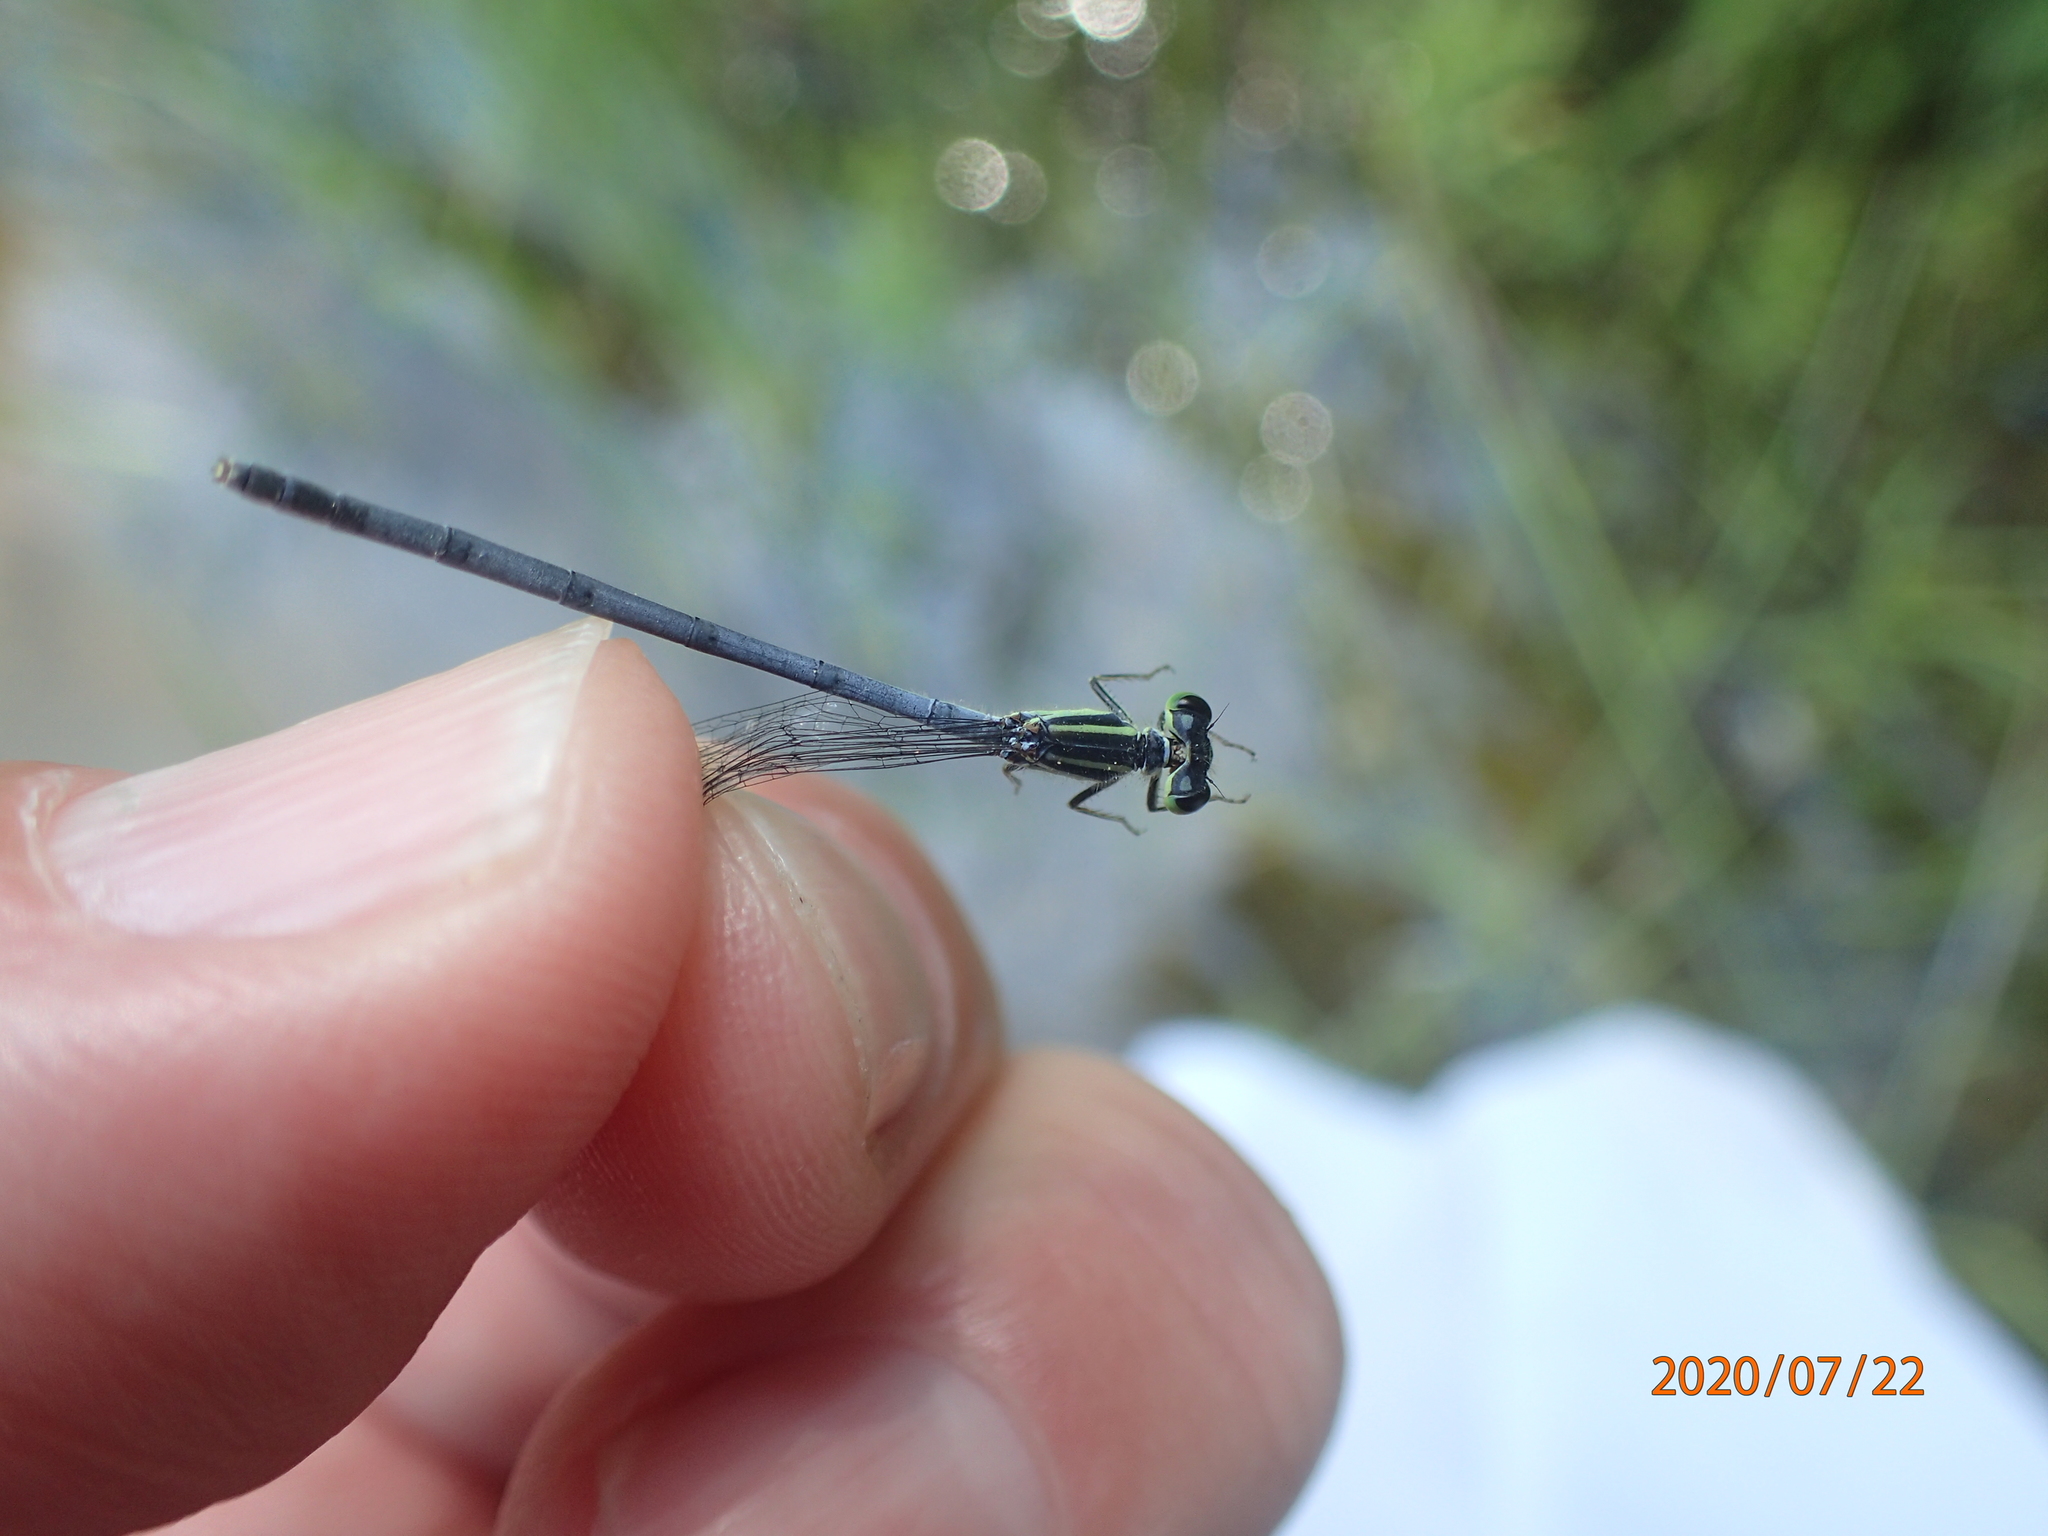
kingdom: Animalia
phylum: Arthropoda
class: Insecta
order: Odonata
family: Coenagrionidae
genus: Ischnura
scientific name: Ischnura verticalis
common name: Eastern forktail
